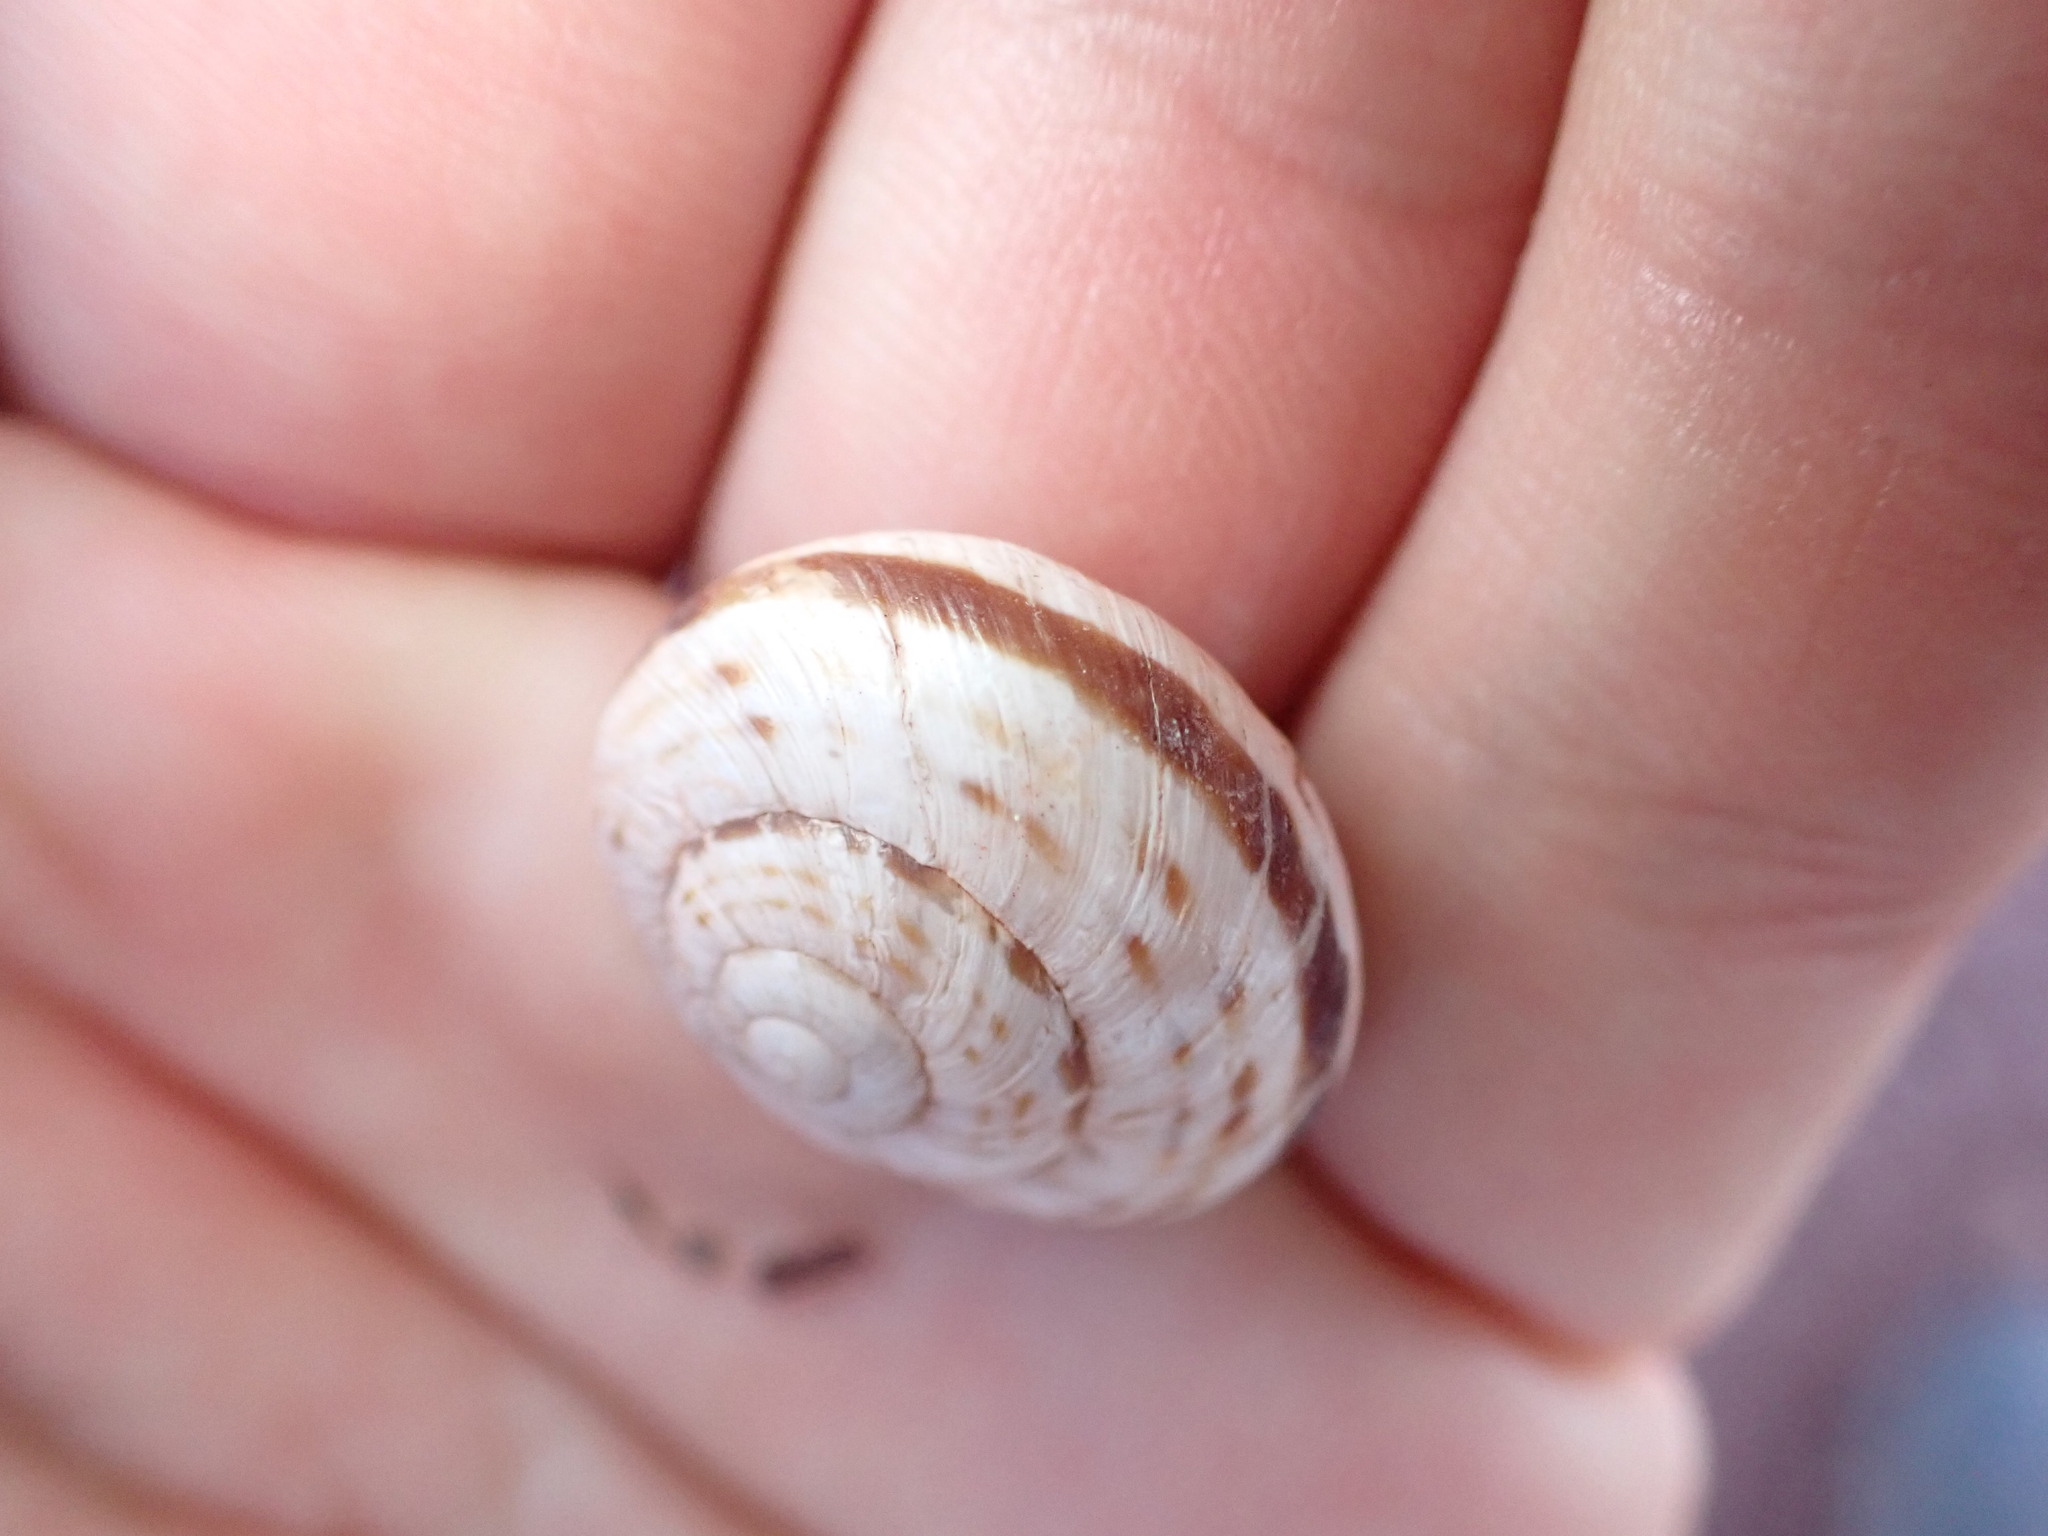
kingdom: Animalia
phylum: Mollusca
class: Gastropoda
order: Stylommatophora
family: Helicidae
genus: Macularia
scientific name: Macularia niciensis
